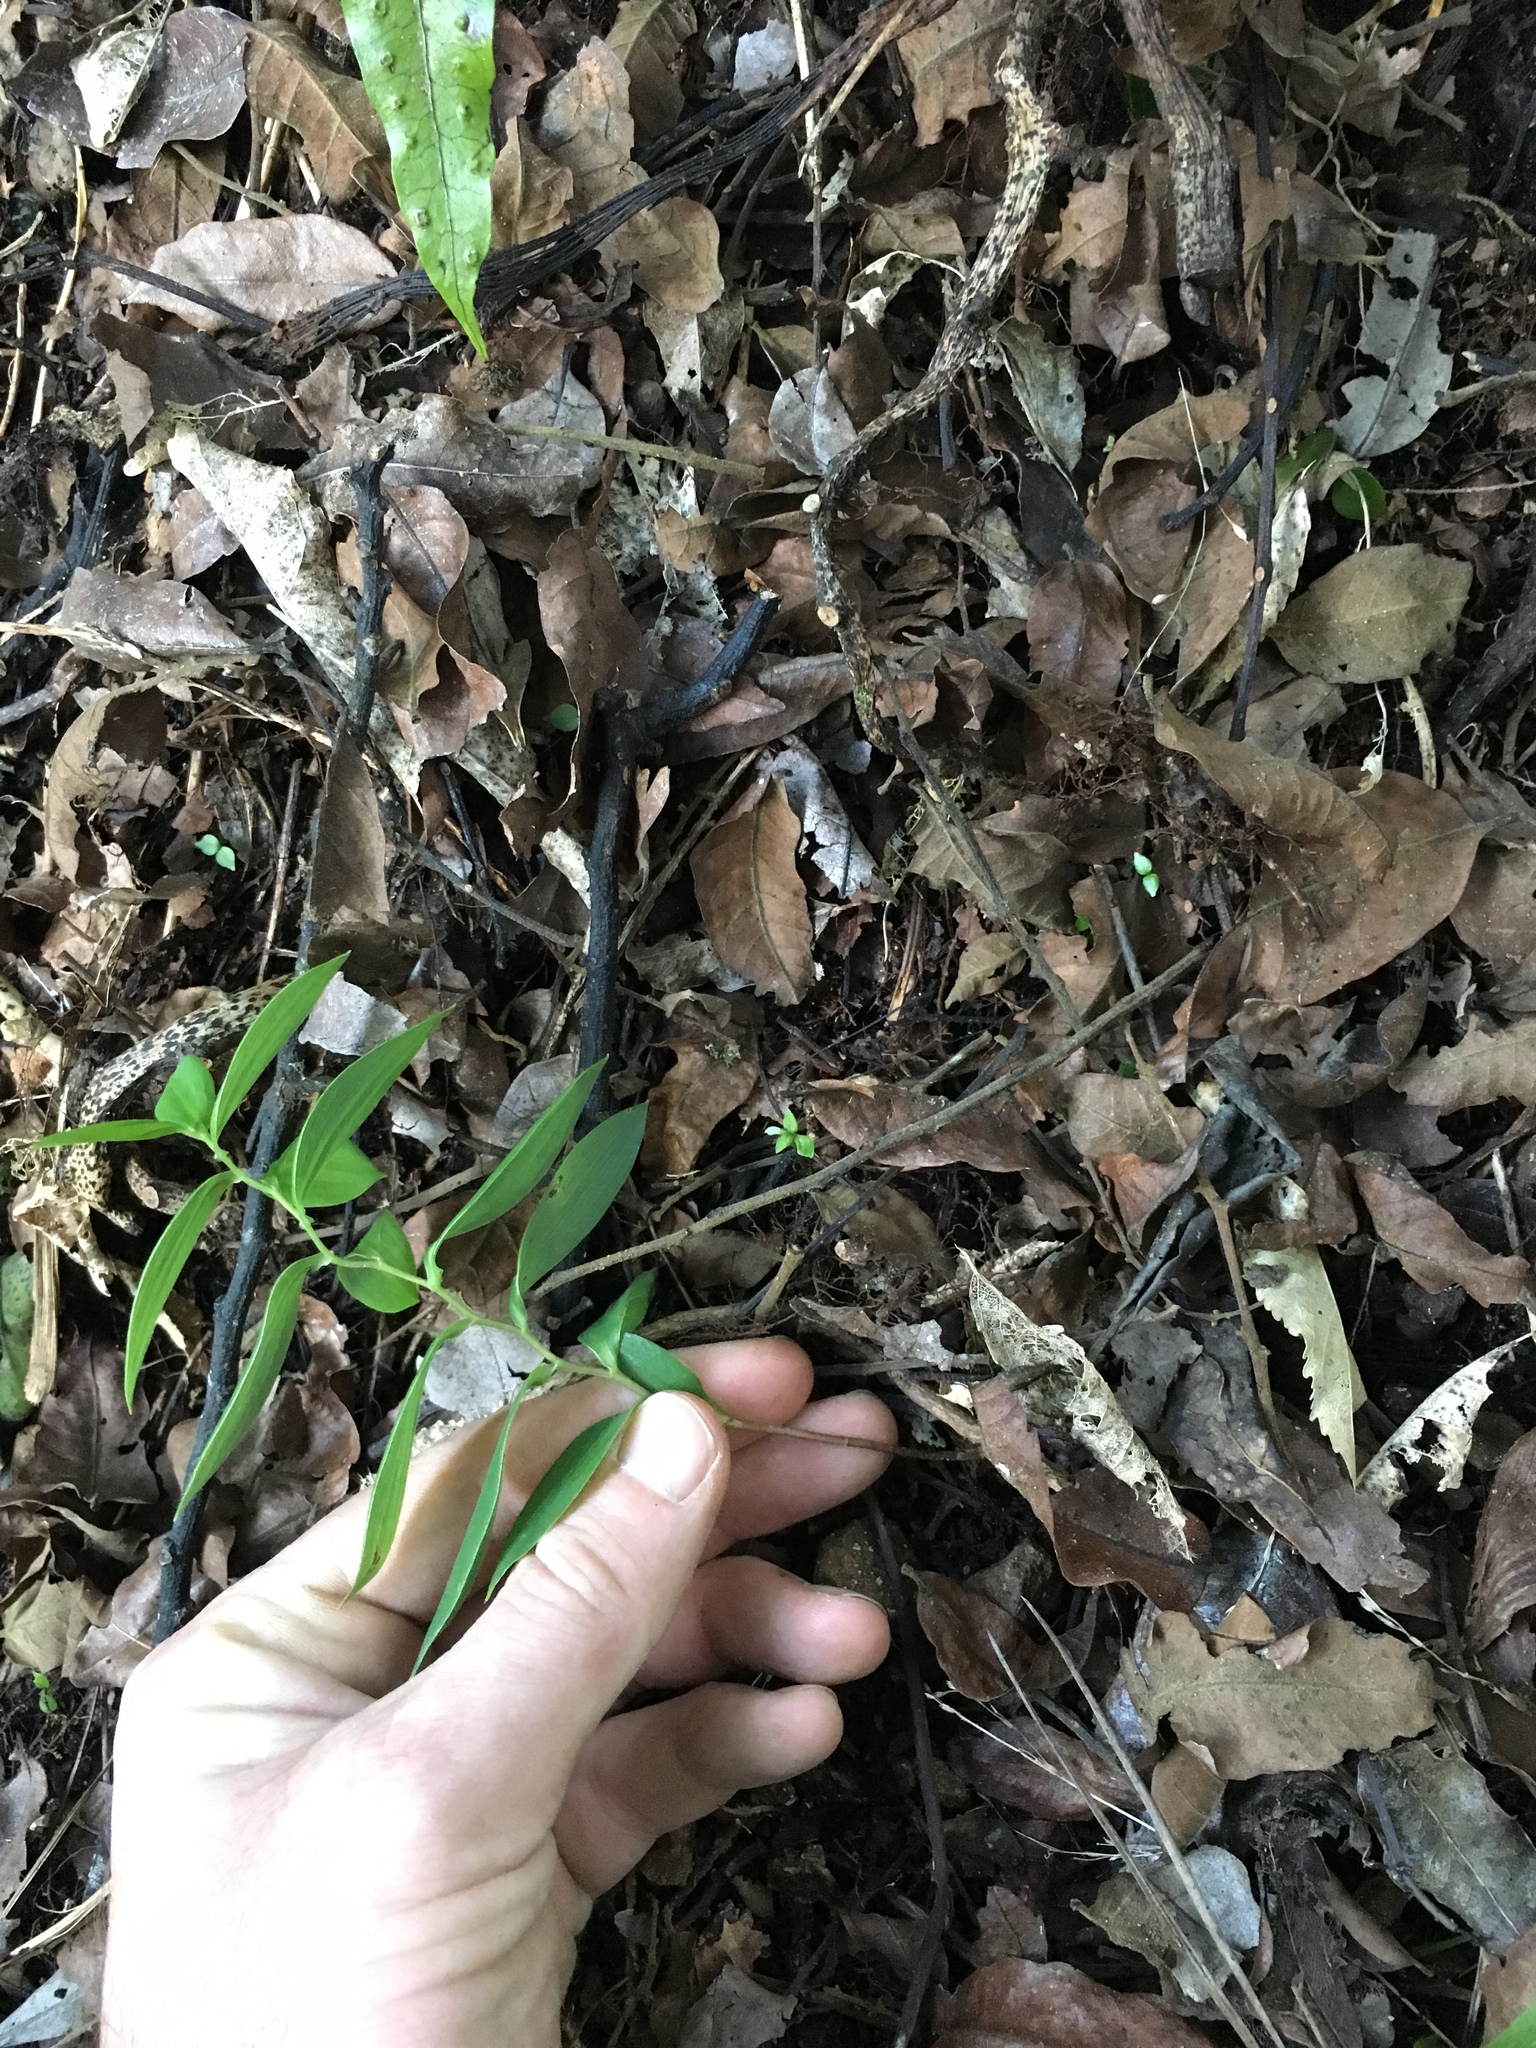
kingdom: Plantae
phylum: Tracheophyta
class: Liliopsida
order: Liliales
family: Alstroemeriaceae
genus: Bomarea
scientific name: Bomarea multiflora
